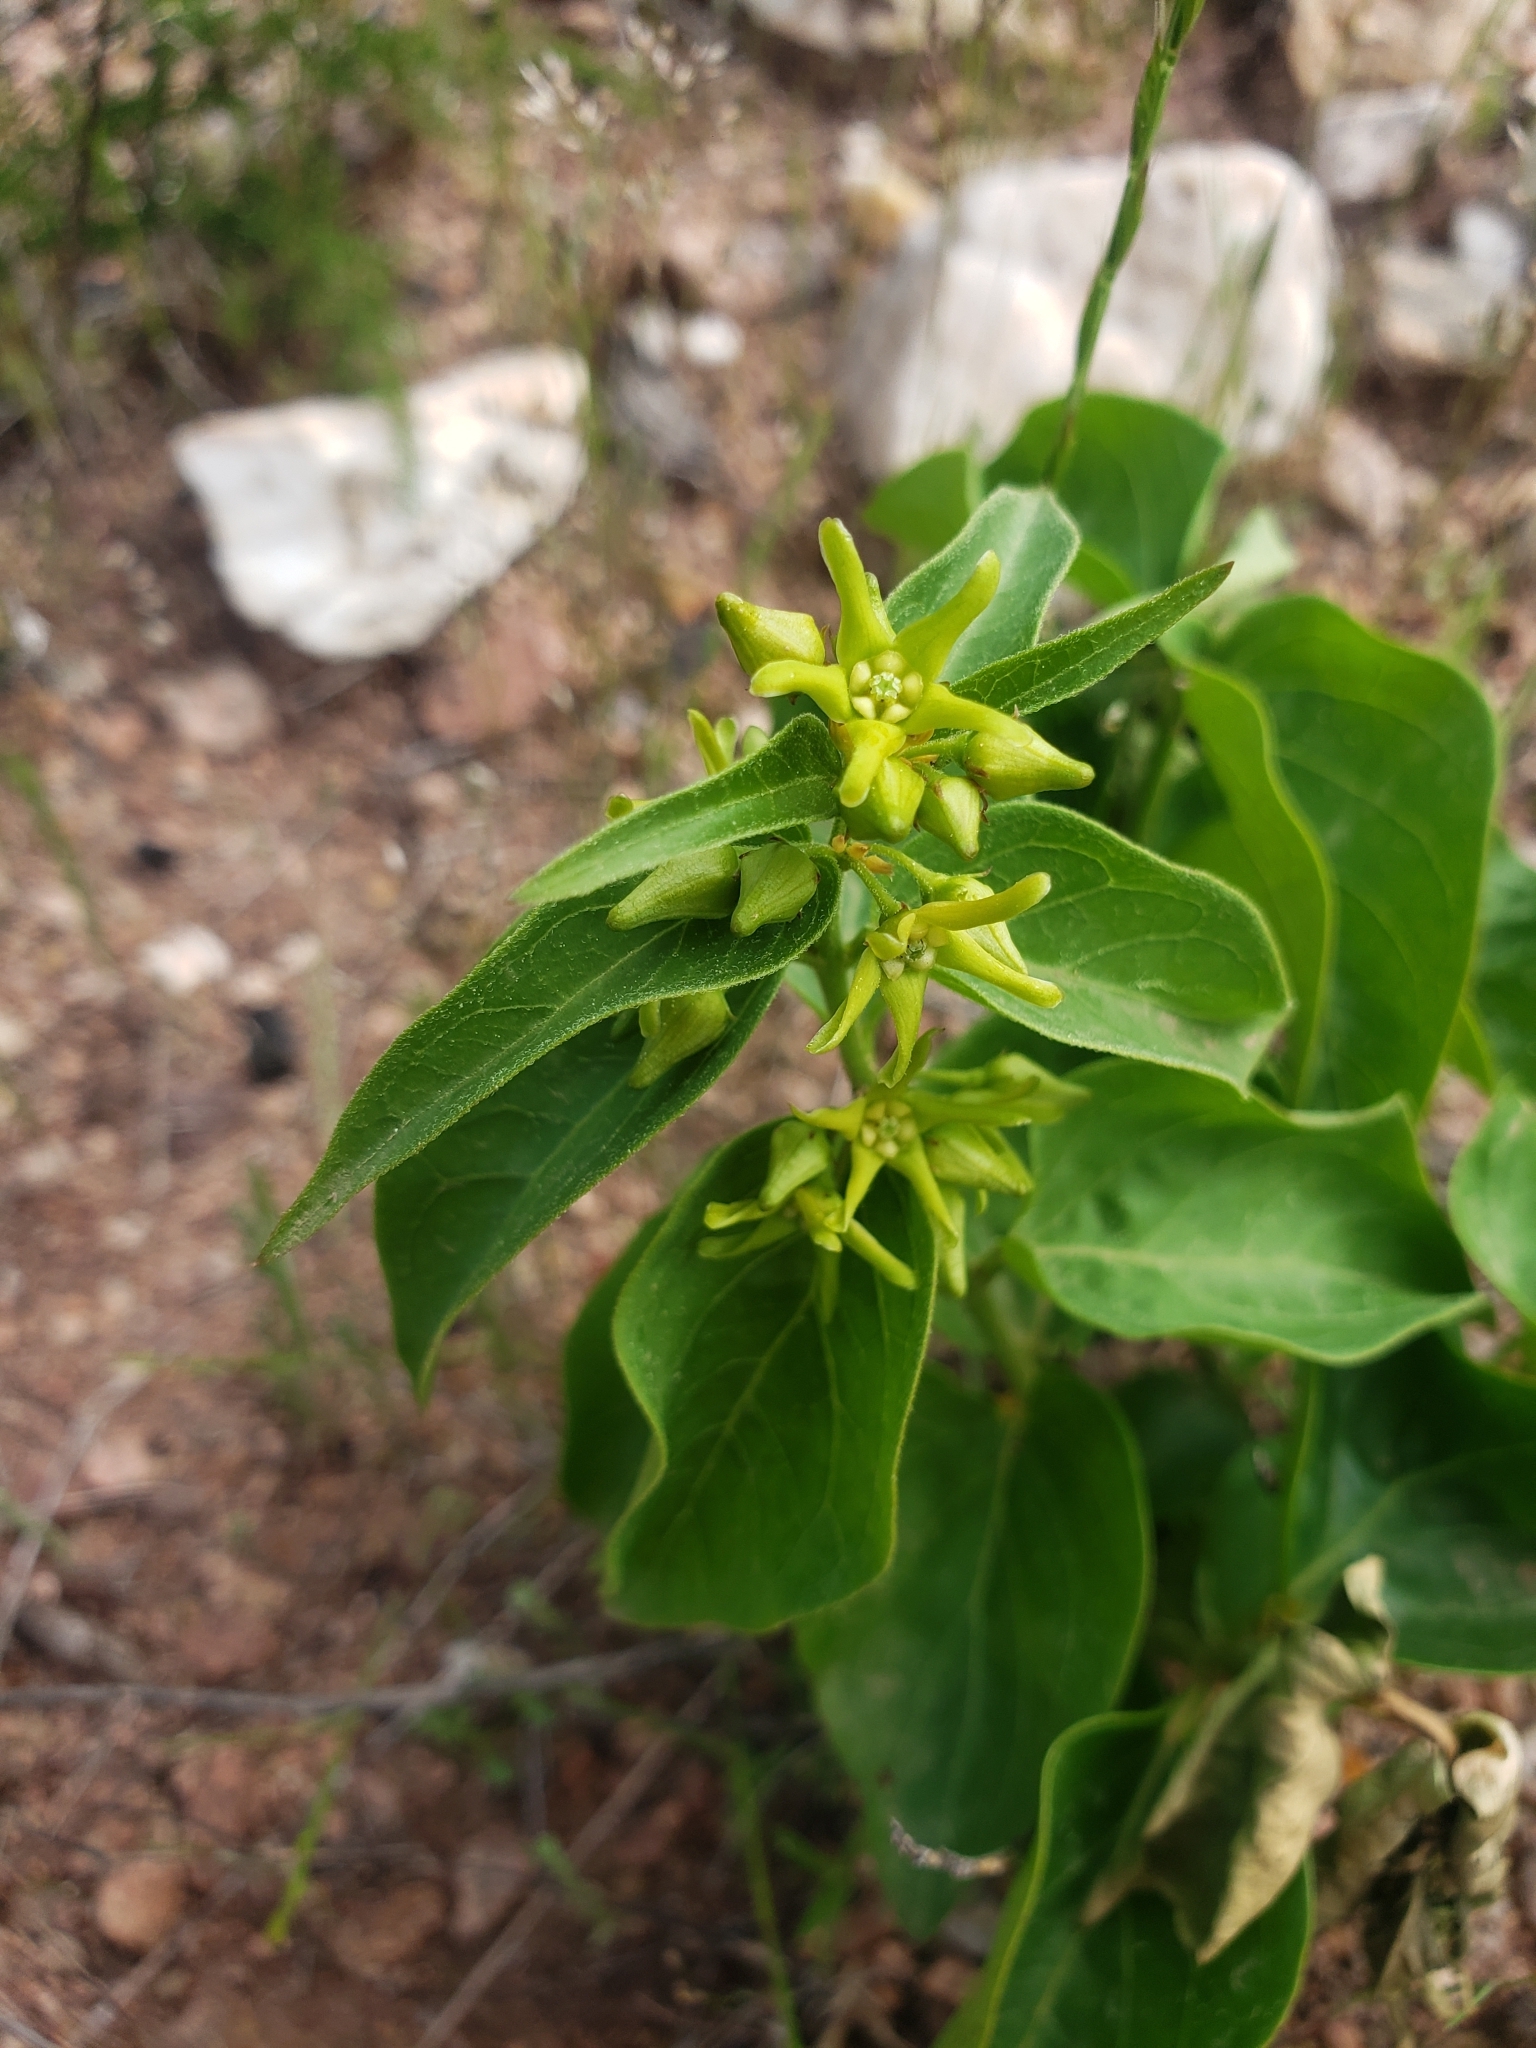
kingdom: Plantae
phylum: Tracheophyta
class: Magnoliopsida
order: Gentianales
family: Apocynaceae
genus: Vincetoxicum
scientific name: Vincetoxicum hirundinaria
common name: White swallowwort
